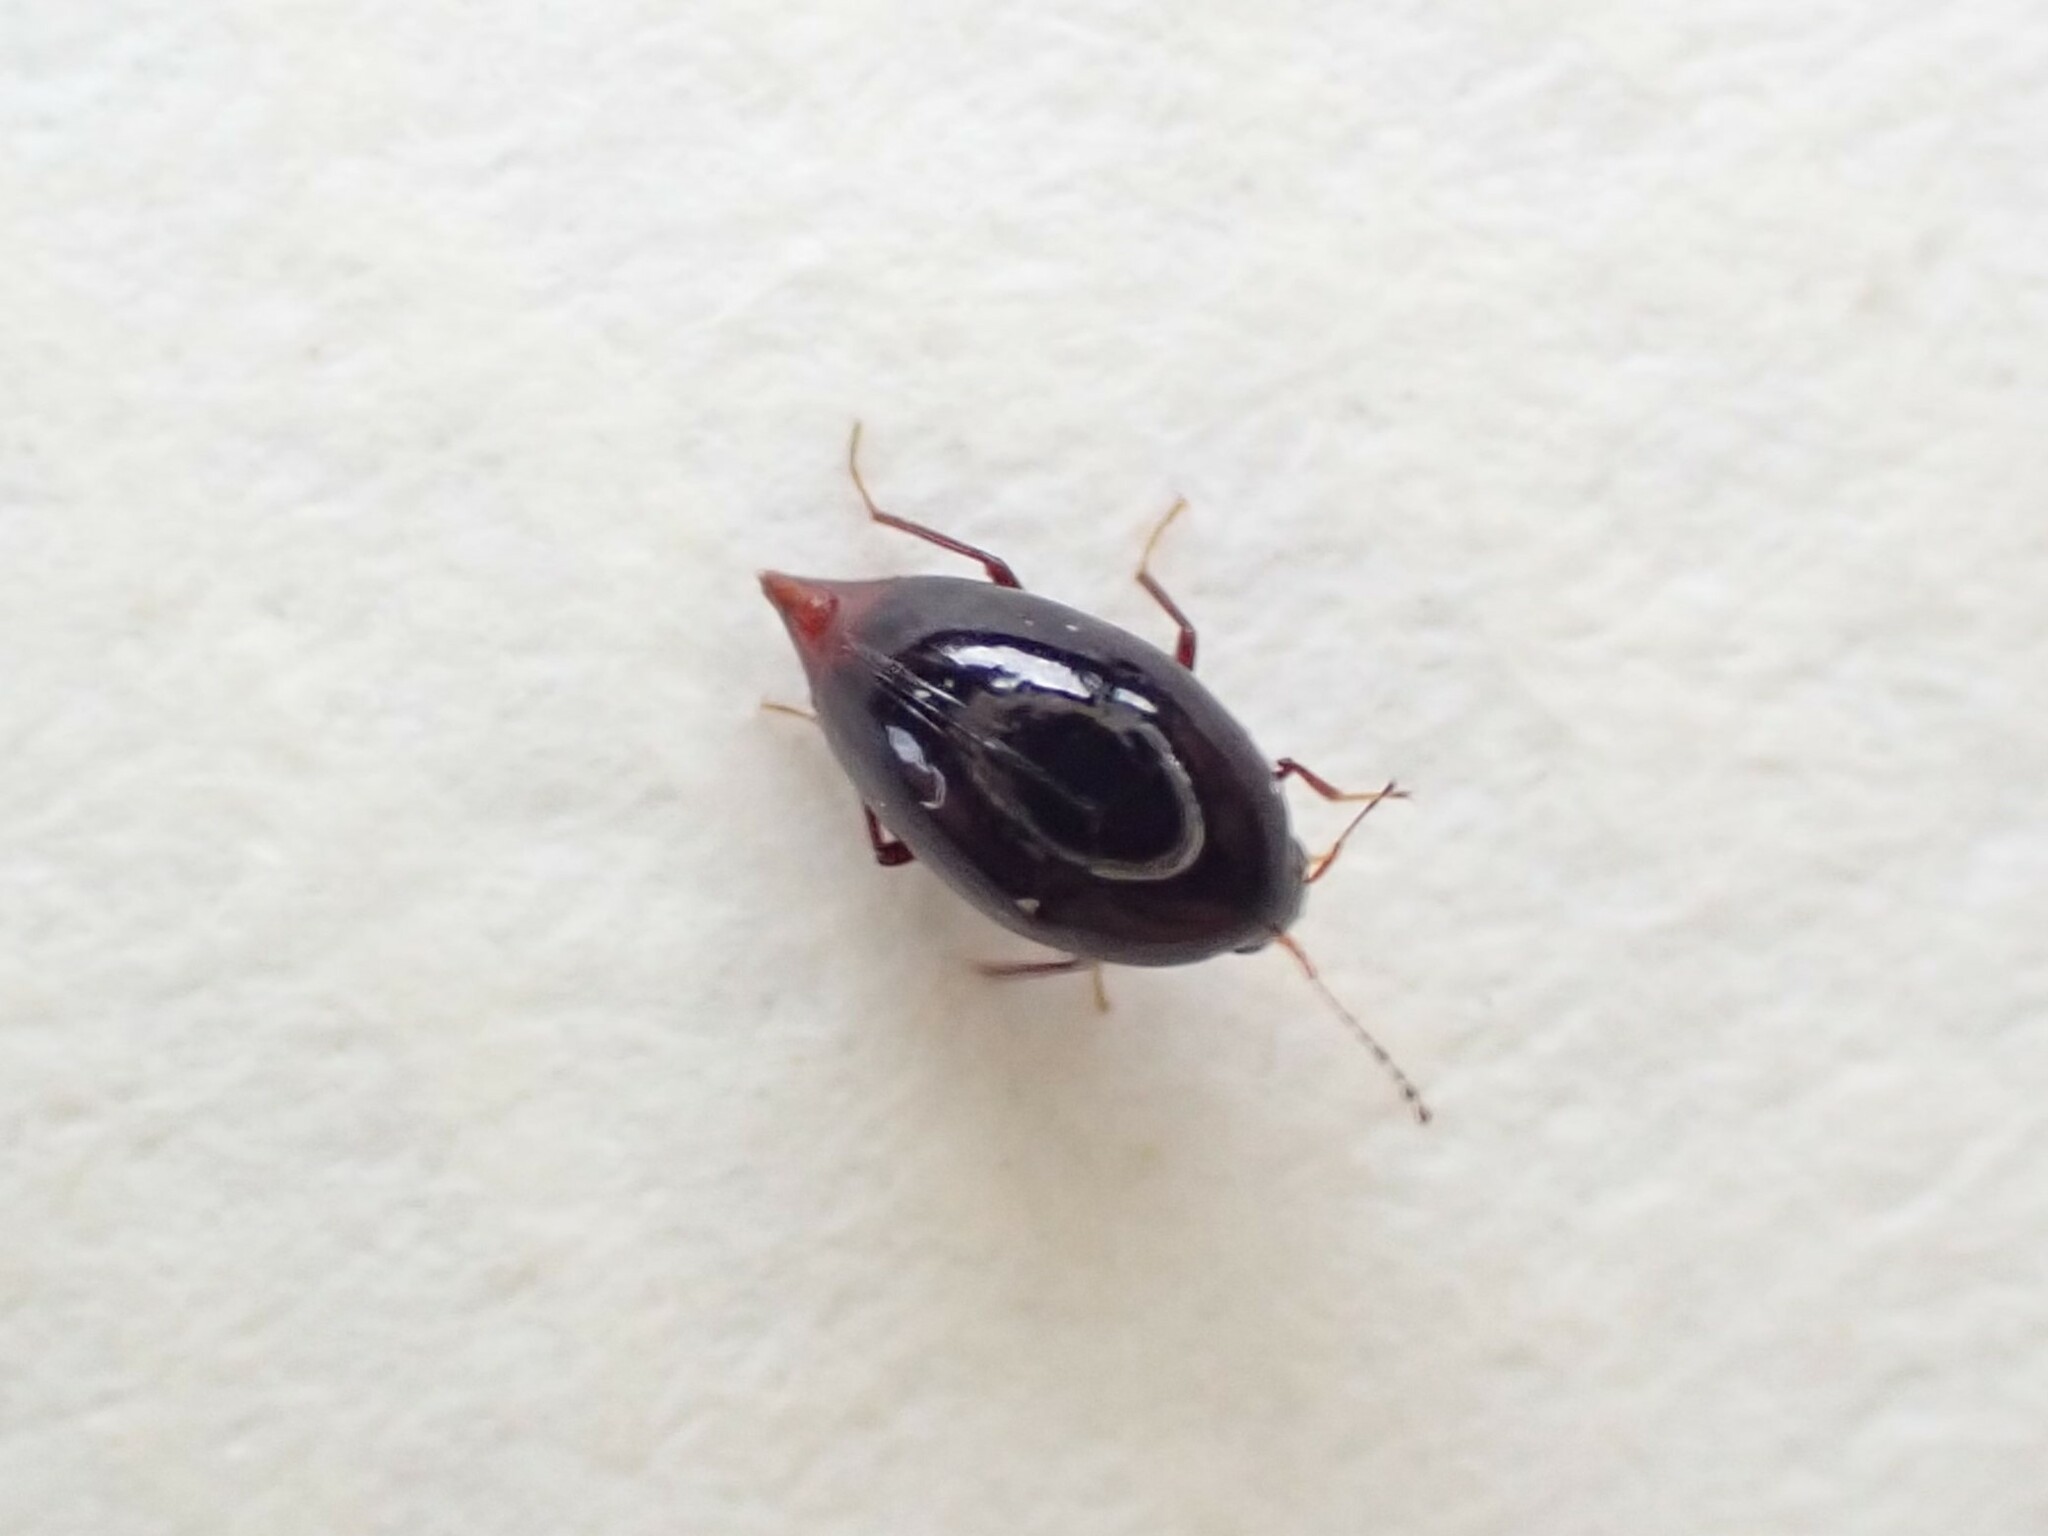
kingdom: Animalia
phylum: Arthropoda
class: Insecta
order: Coleoptera
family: Staphylinidae
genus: Brachynopus
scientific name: Brachynopus scutellaris
